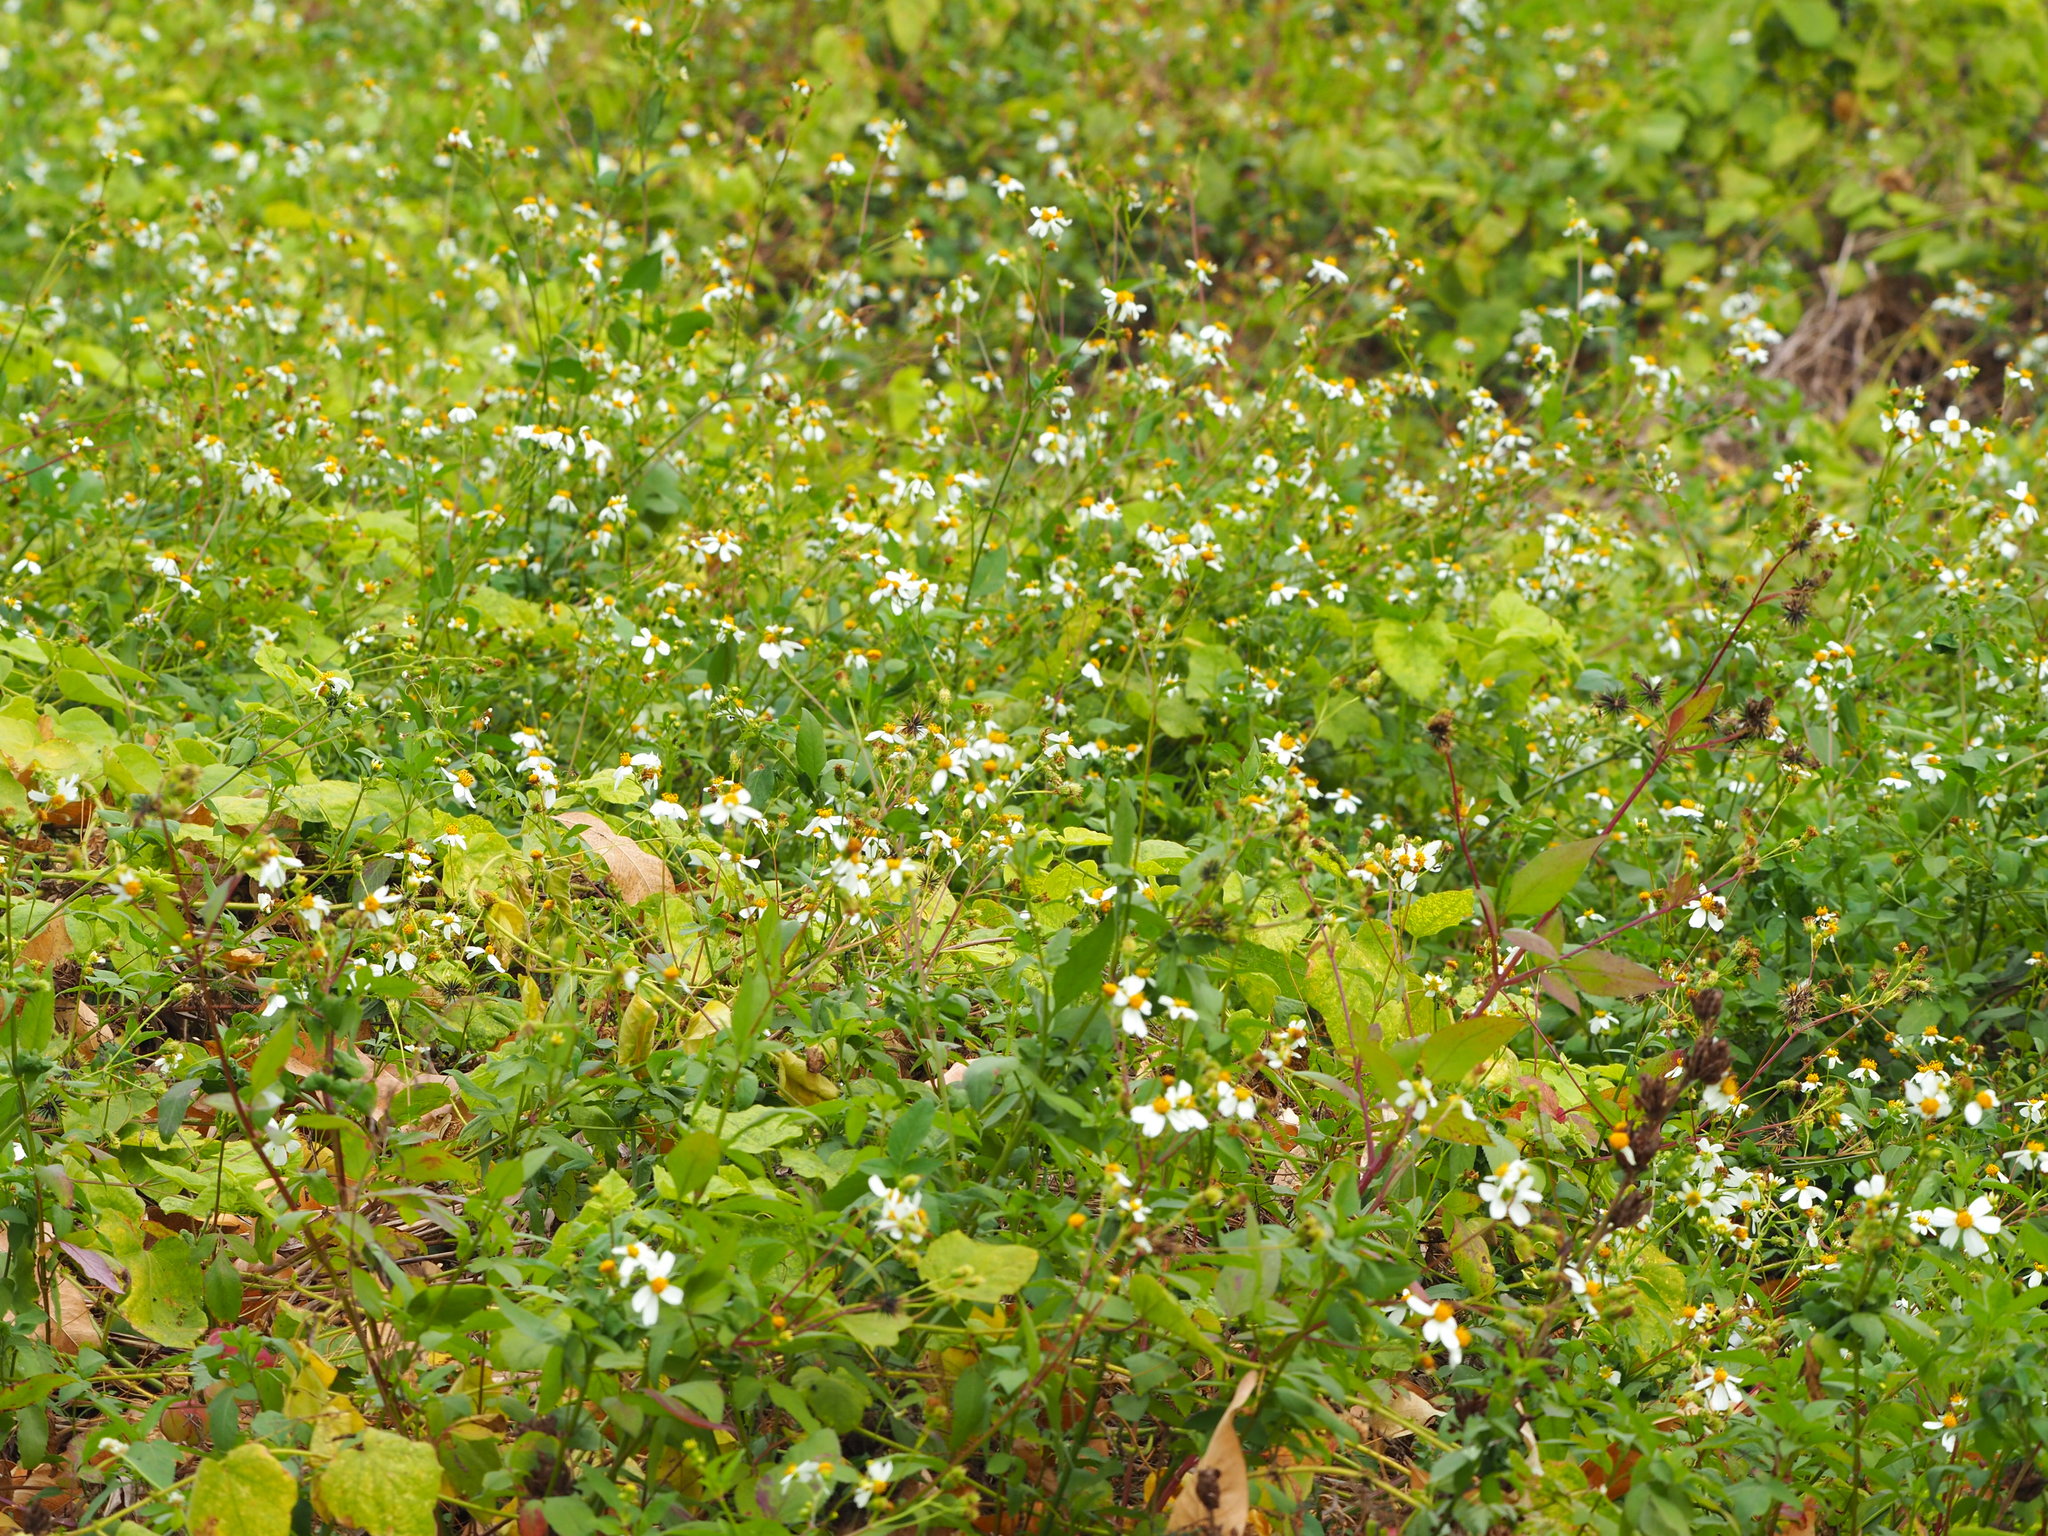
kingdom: Plantae
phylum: Tracheophyta
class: Magnoliopsida
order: Asterales
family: Asteraceae
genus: Bidens
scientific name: Bidens alba
